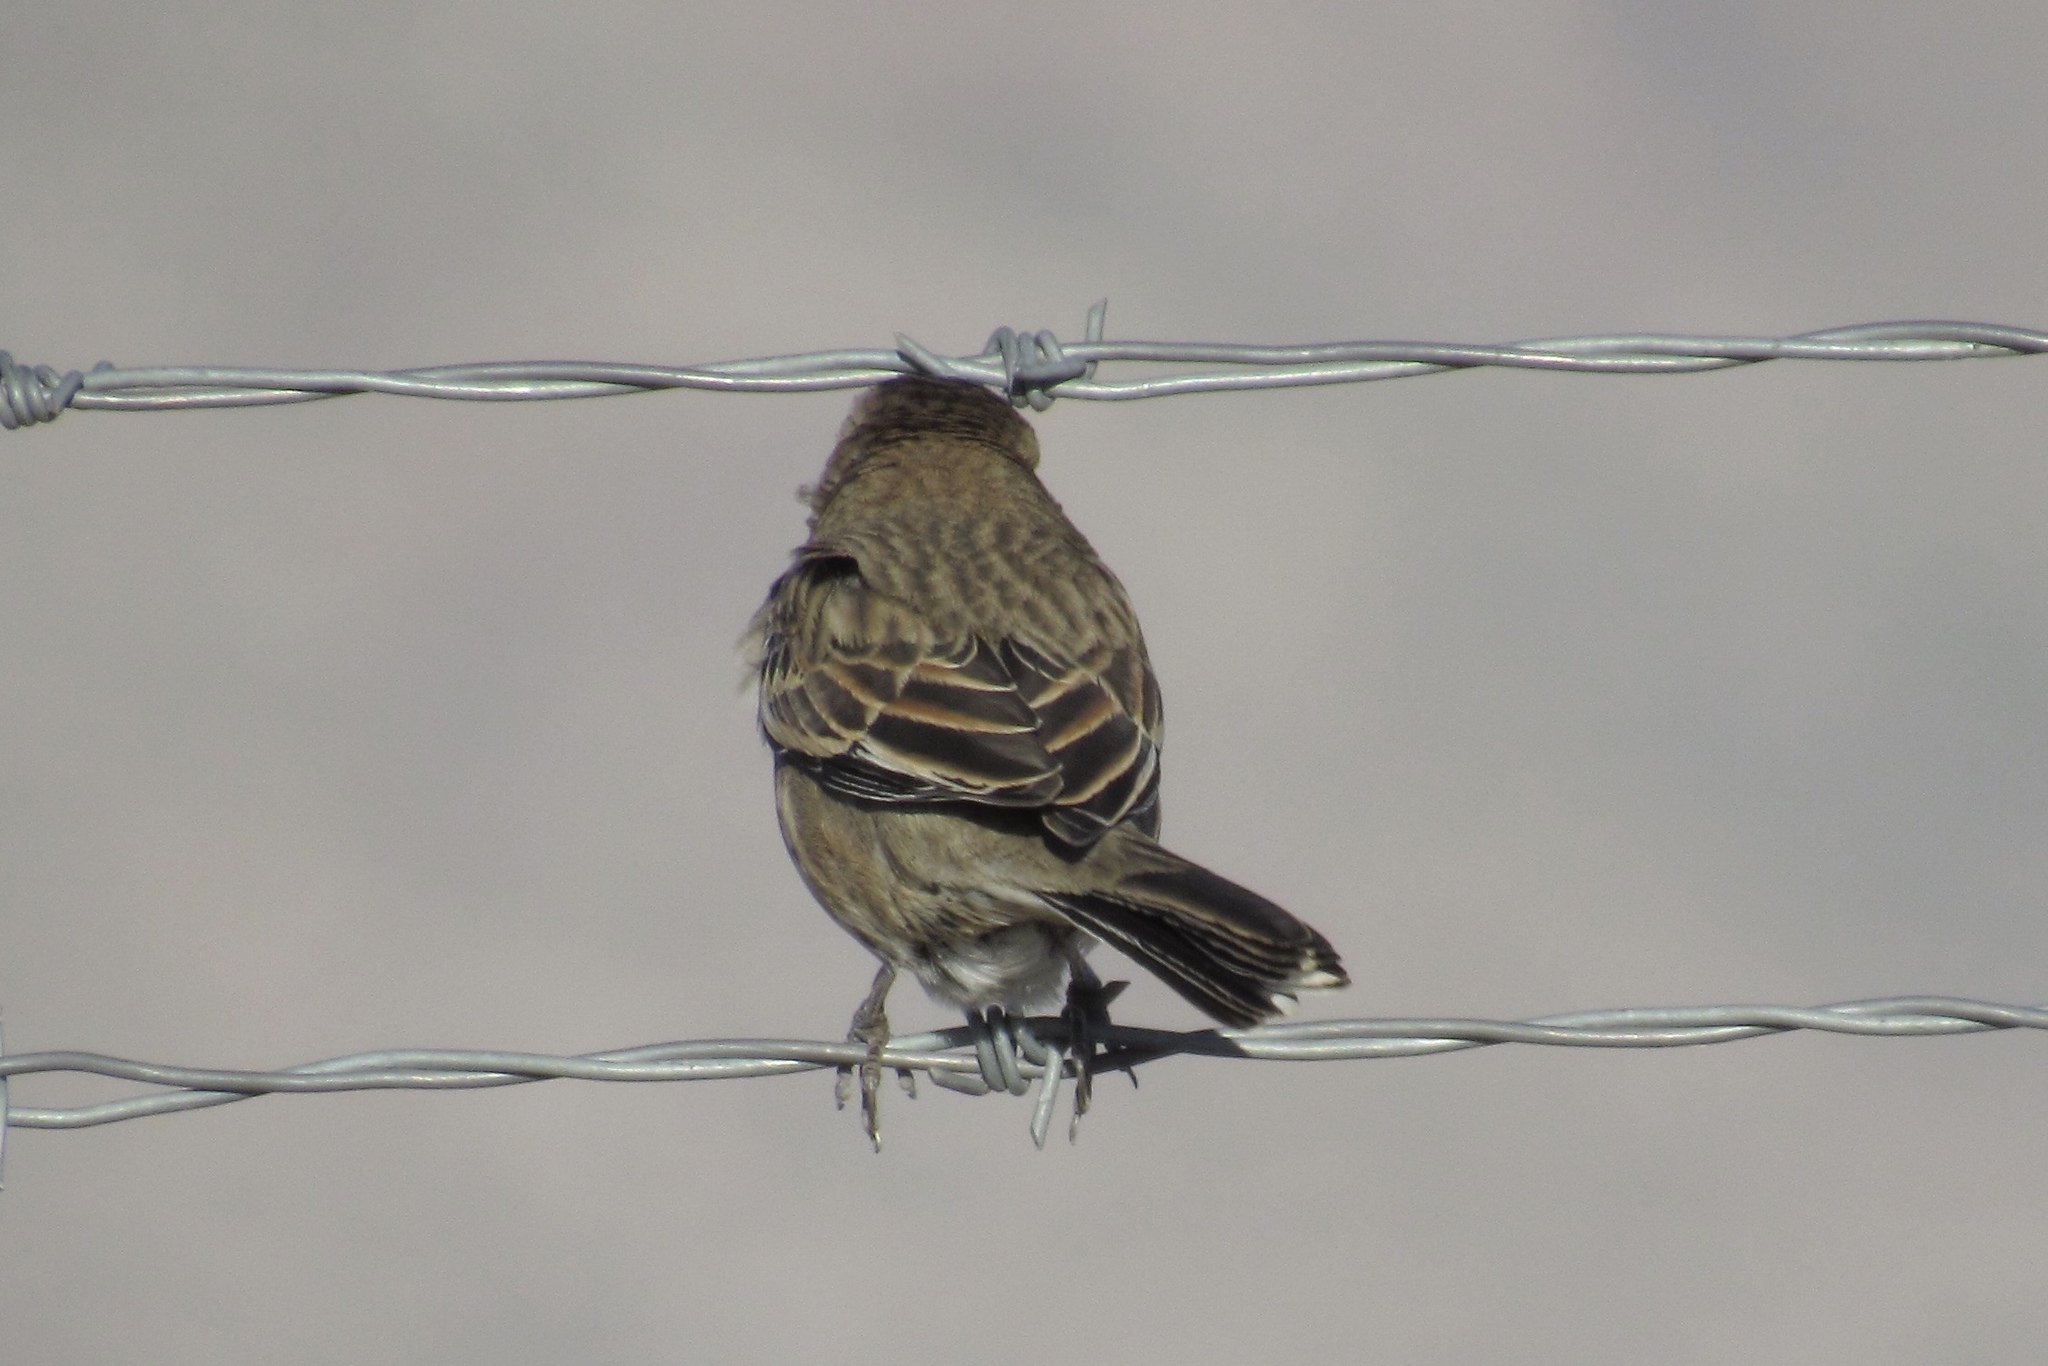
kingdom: Animalia
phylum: Chordata
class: Aves
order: Passeriformes
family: Passerellidae
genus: Calamospiza
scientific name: Calamospiza melanocorys
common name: Lark bunting
